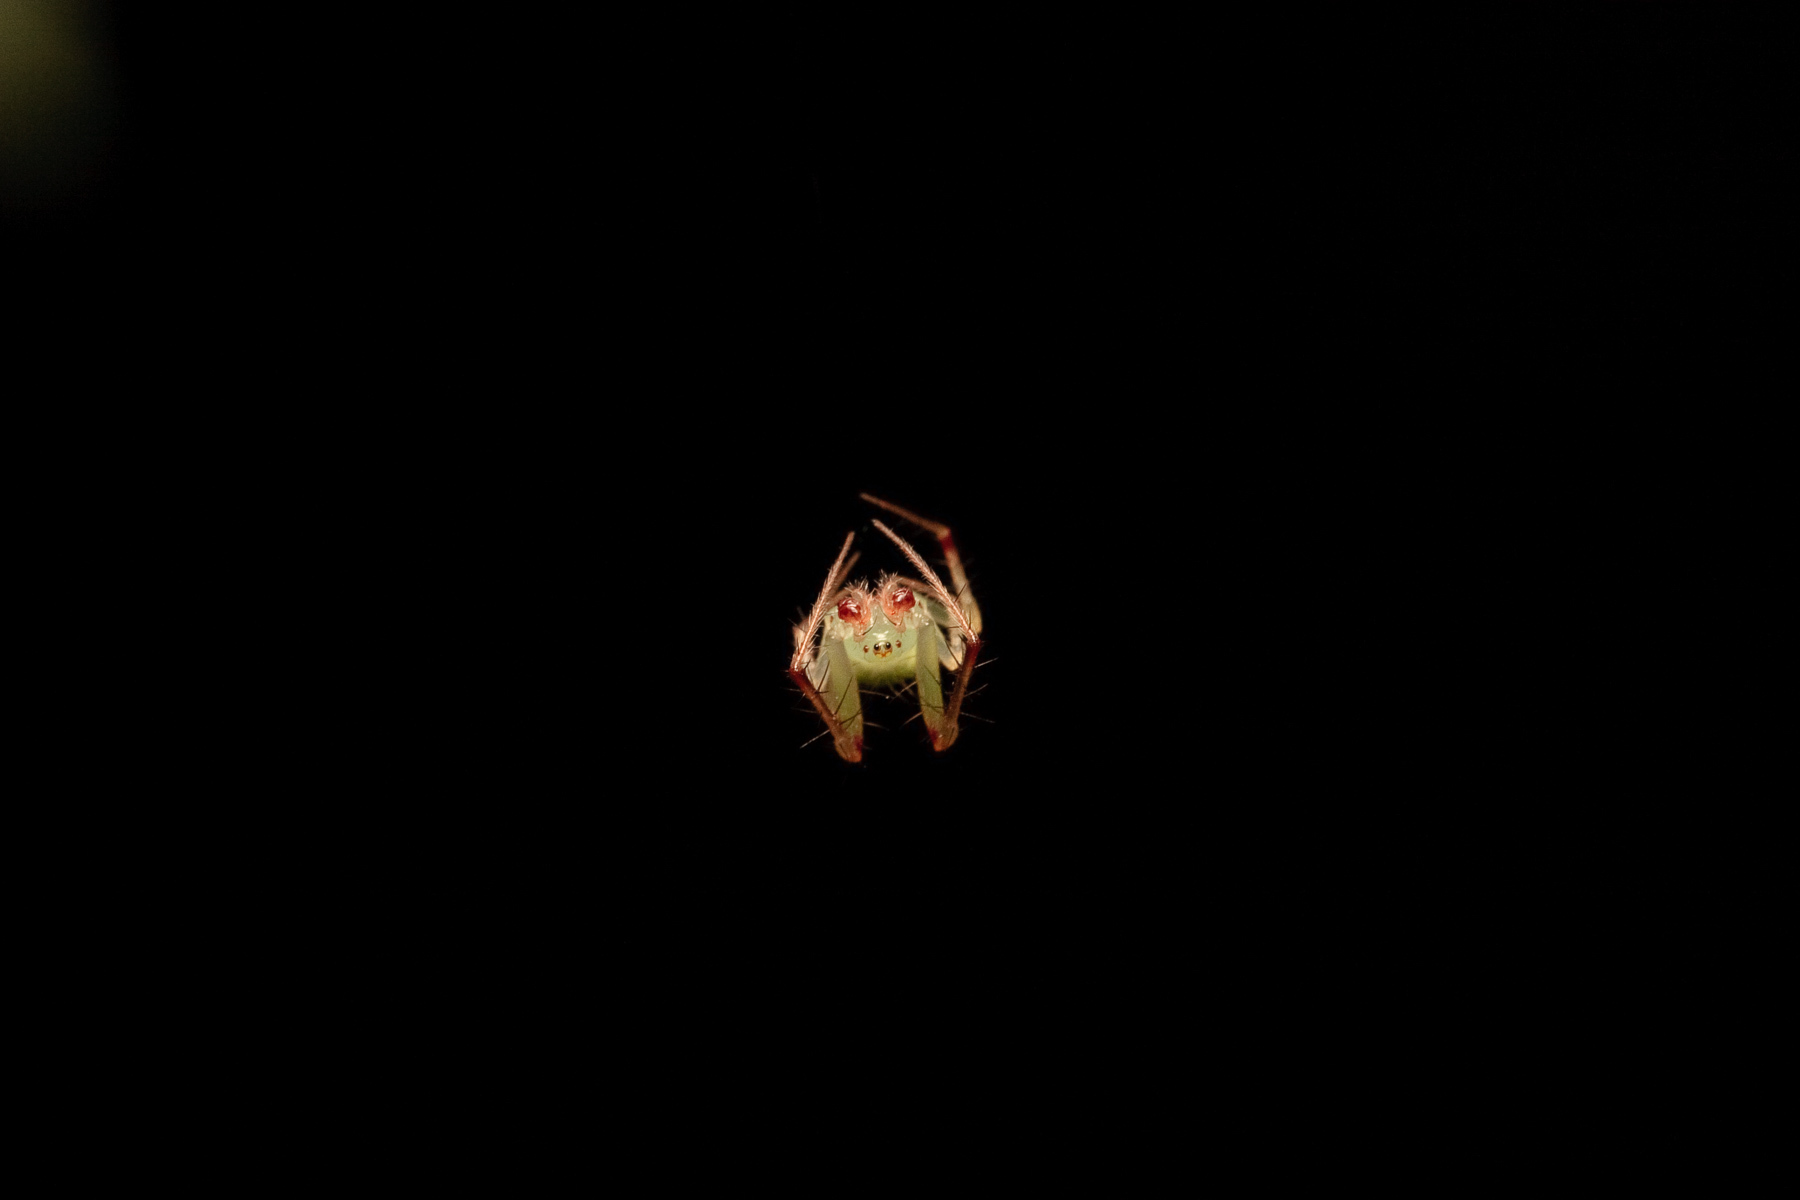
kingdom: Animalia
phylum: Arthropoda
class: Arachnida
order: Araneae
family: Araneidae
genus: Araneus
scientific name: Araneus cingulatus
